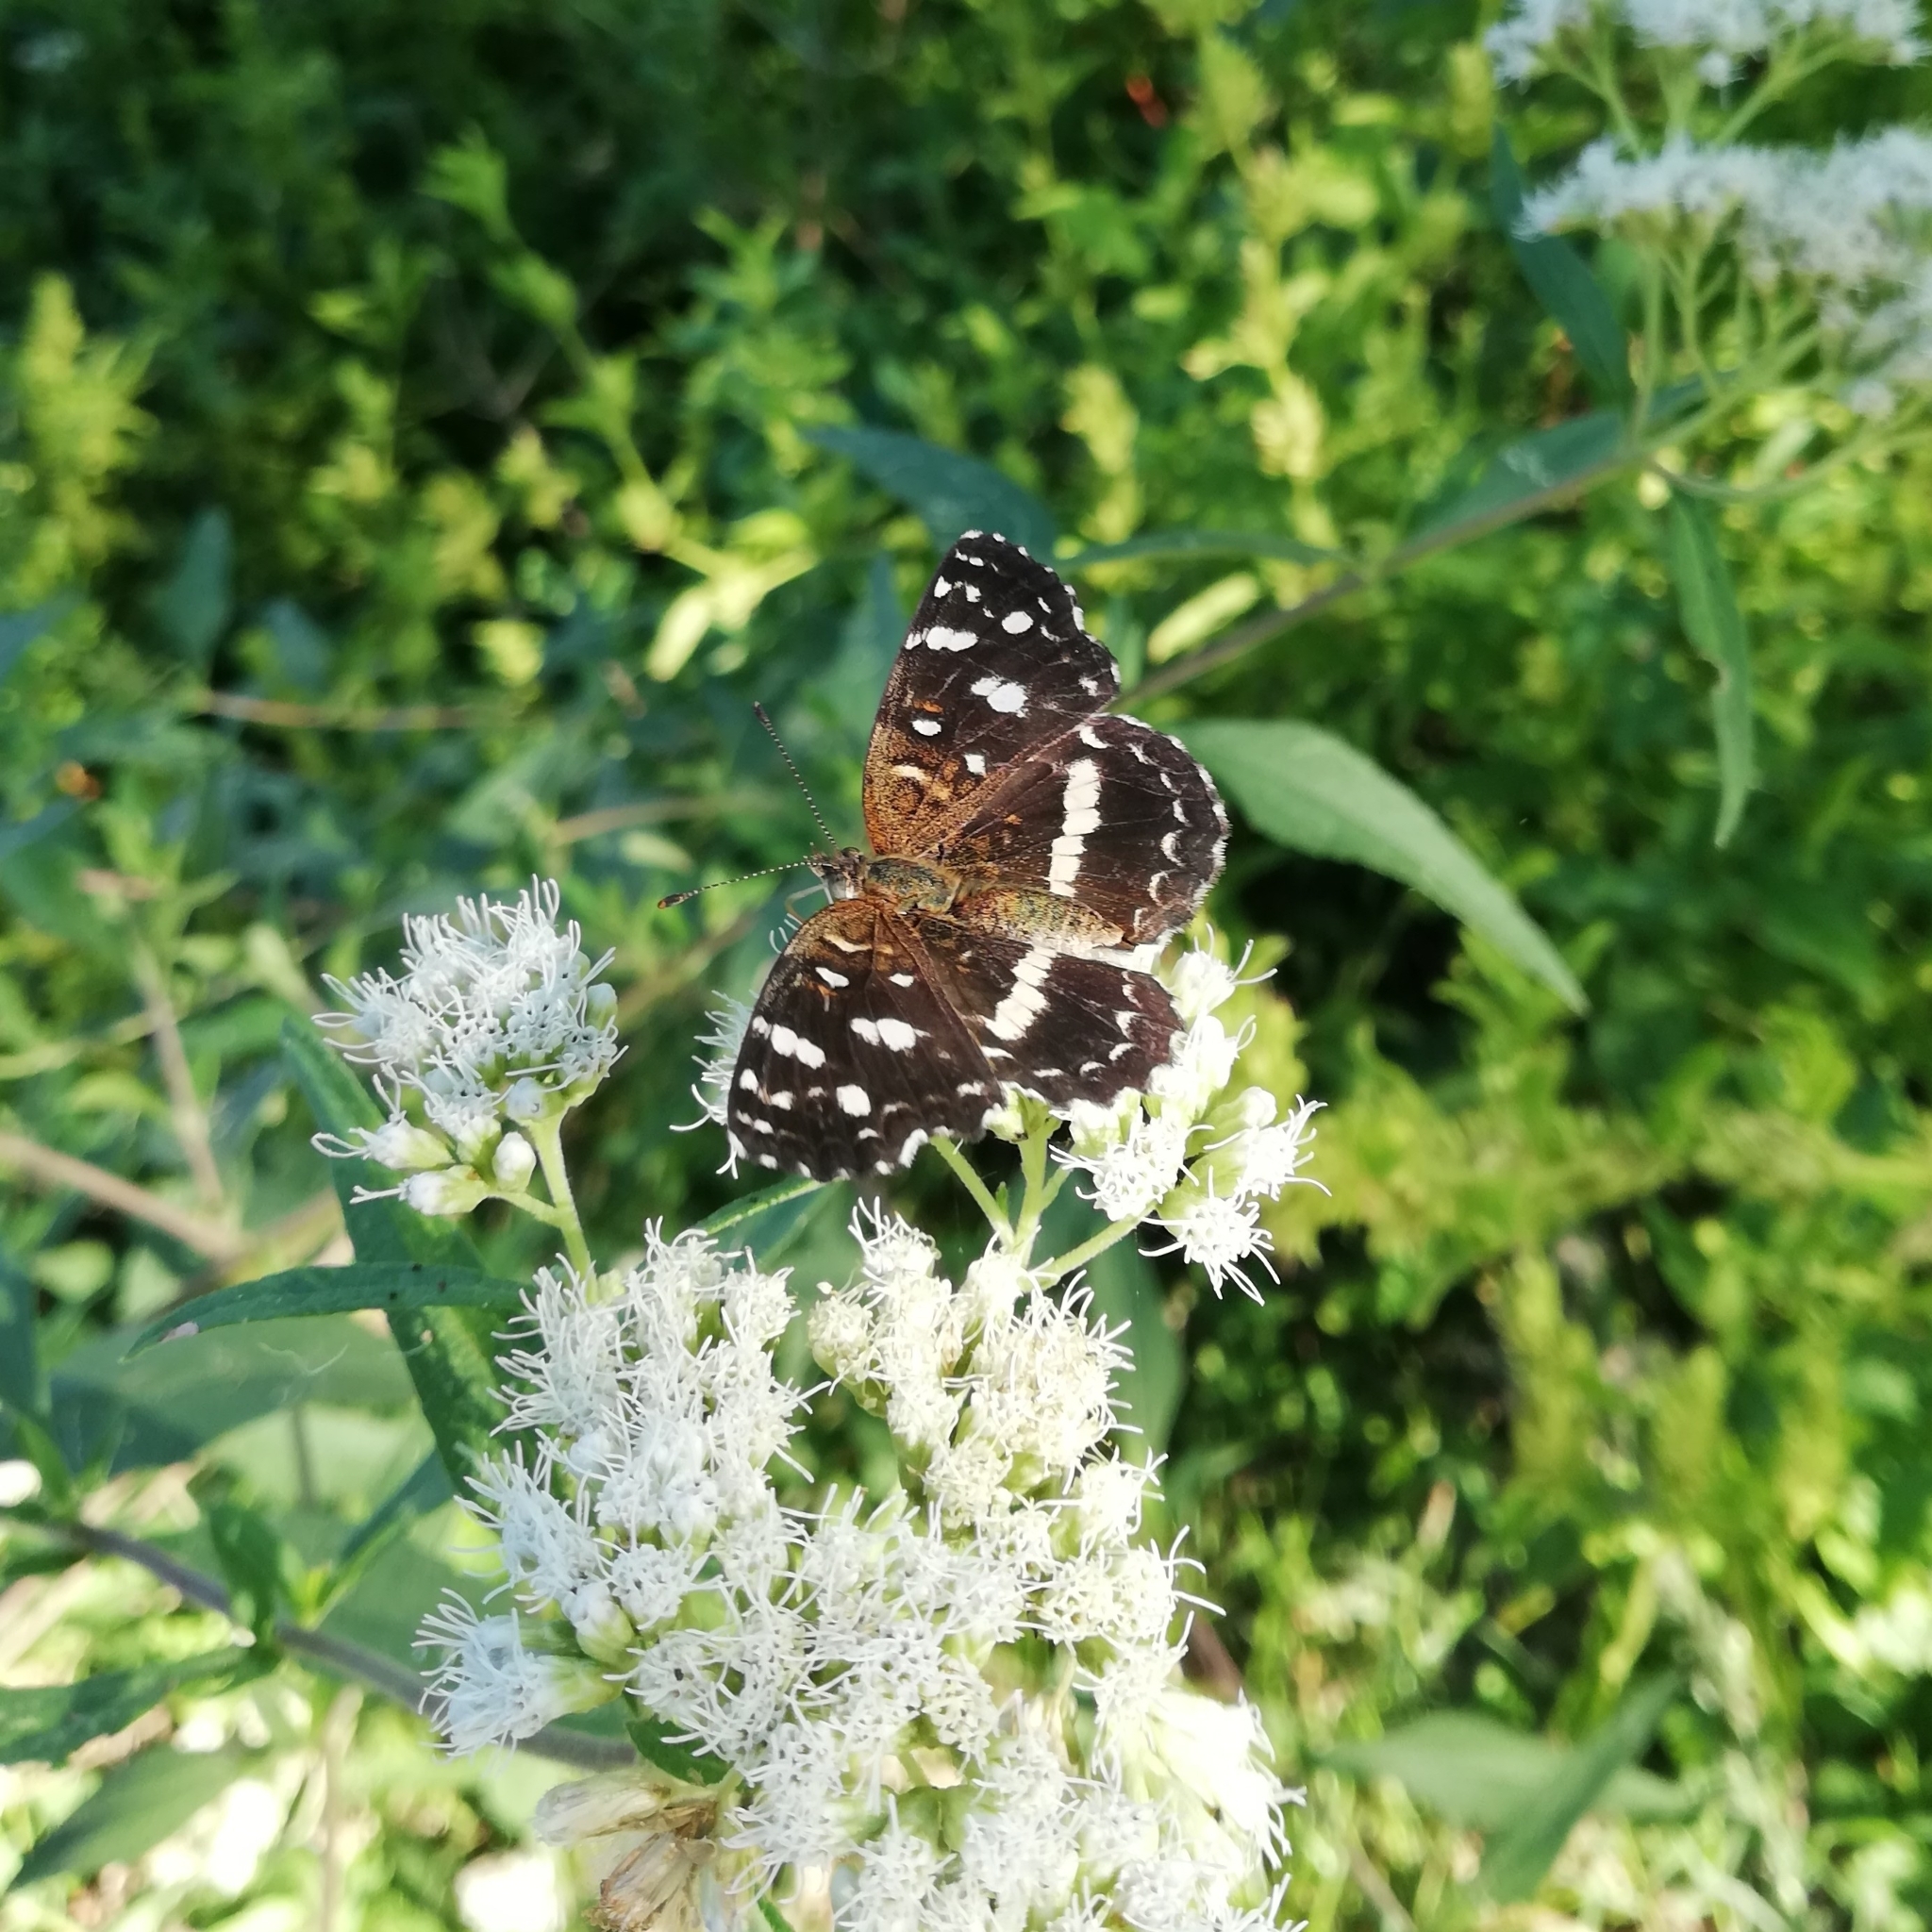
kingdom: Animalia
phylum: Arthropoda
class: Insecta
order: Lepidoptera
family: Nymphalidae
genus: Ortilia
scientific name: Ortilia ithra
